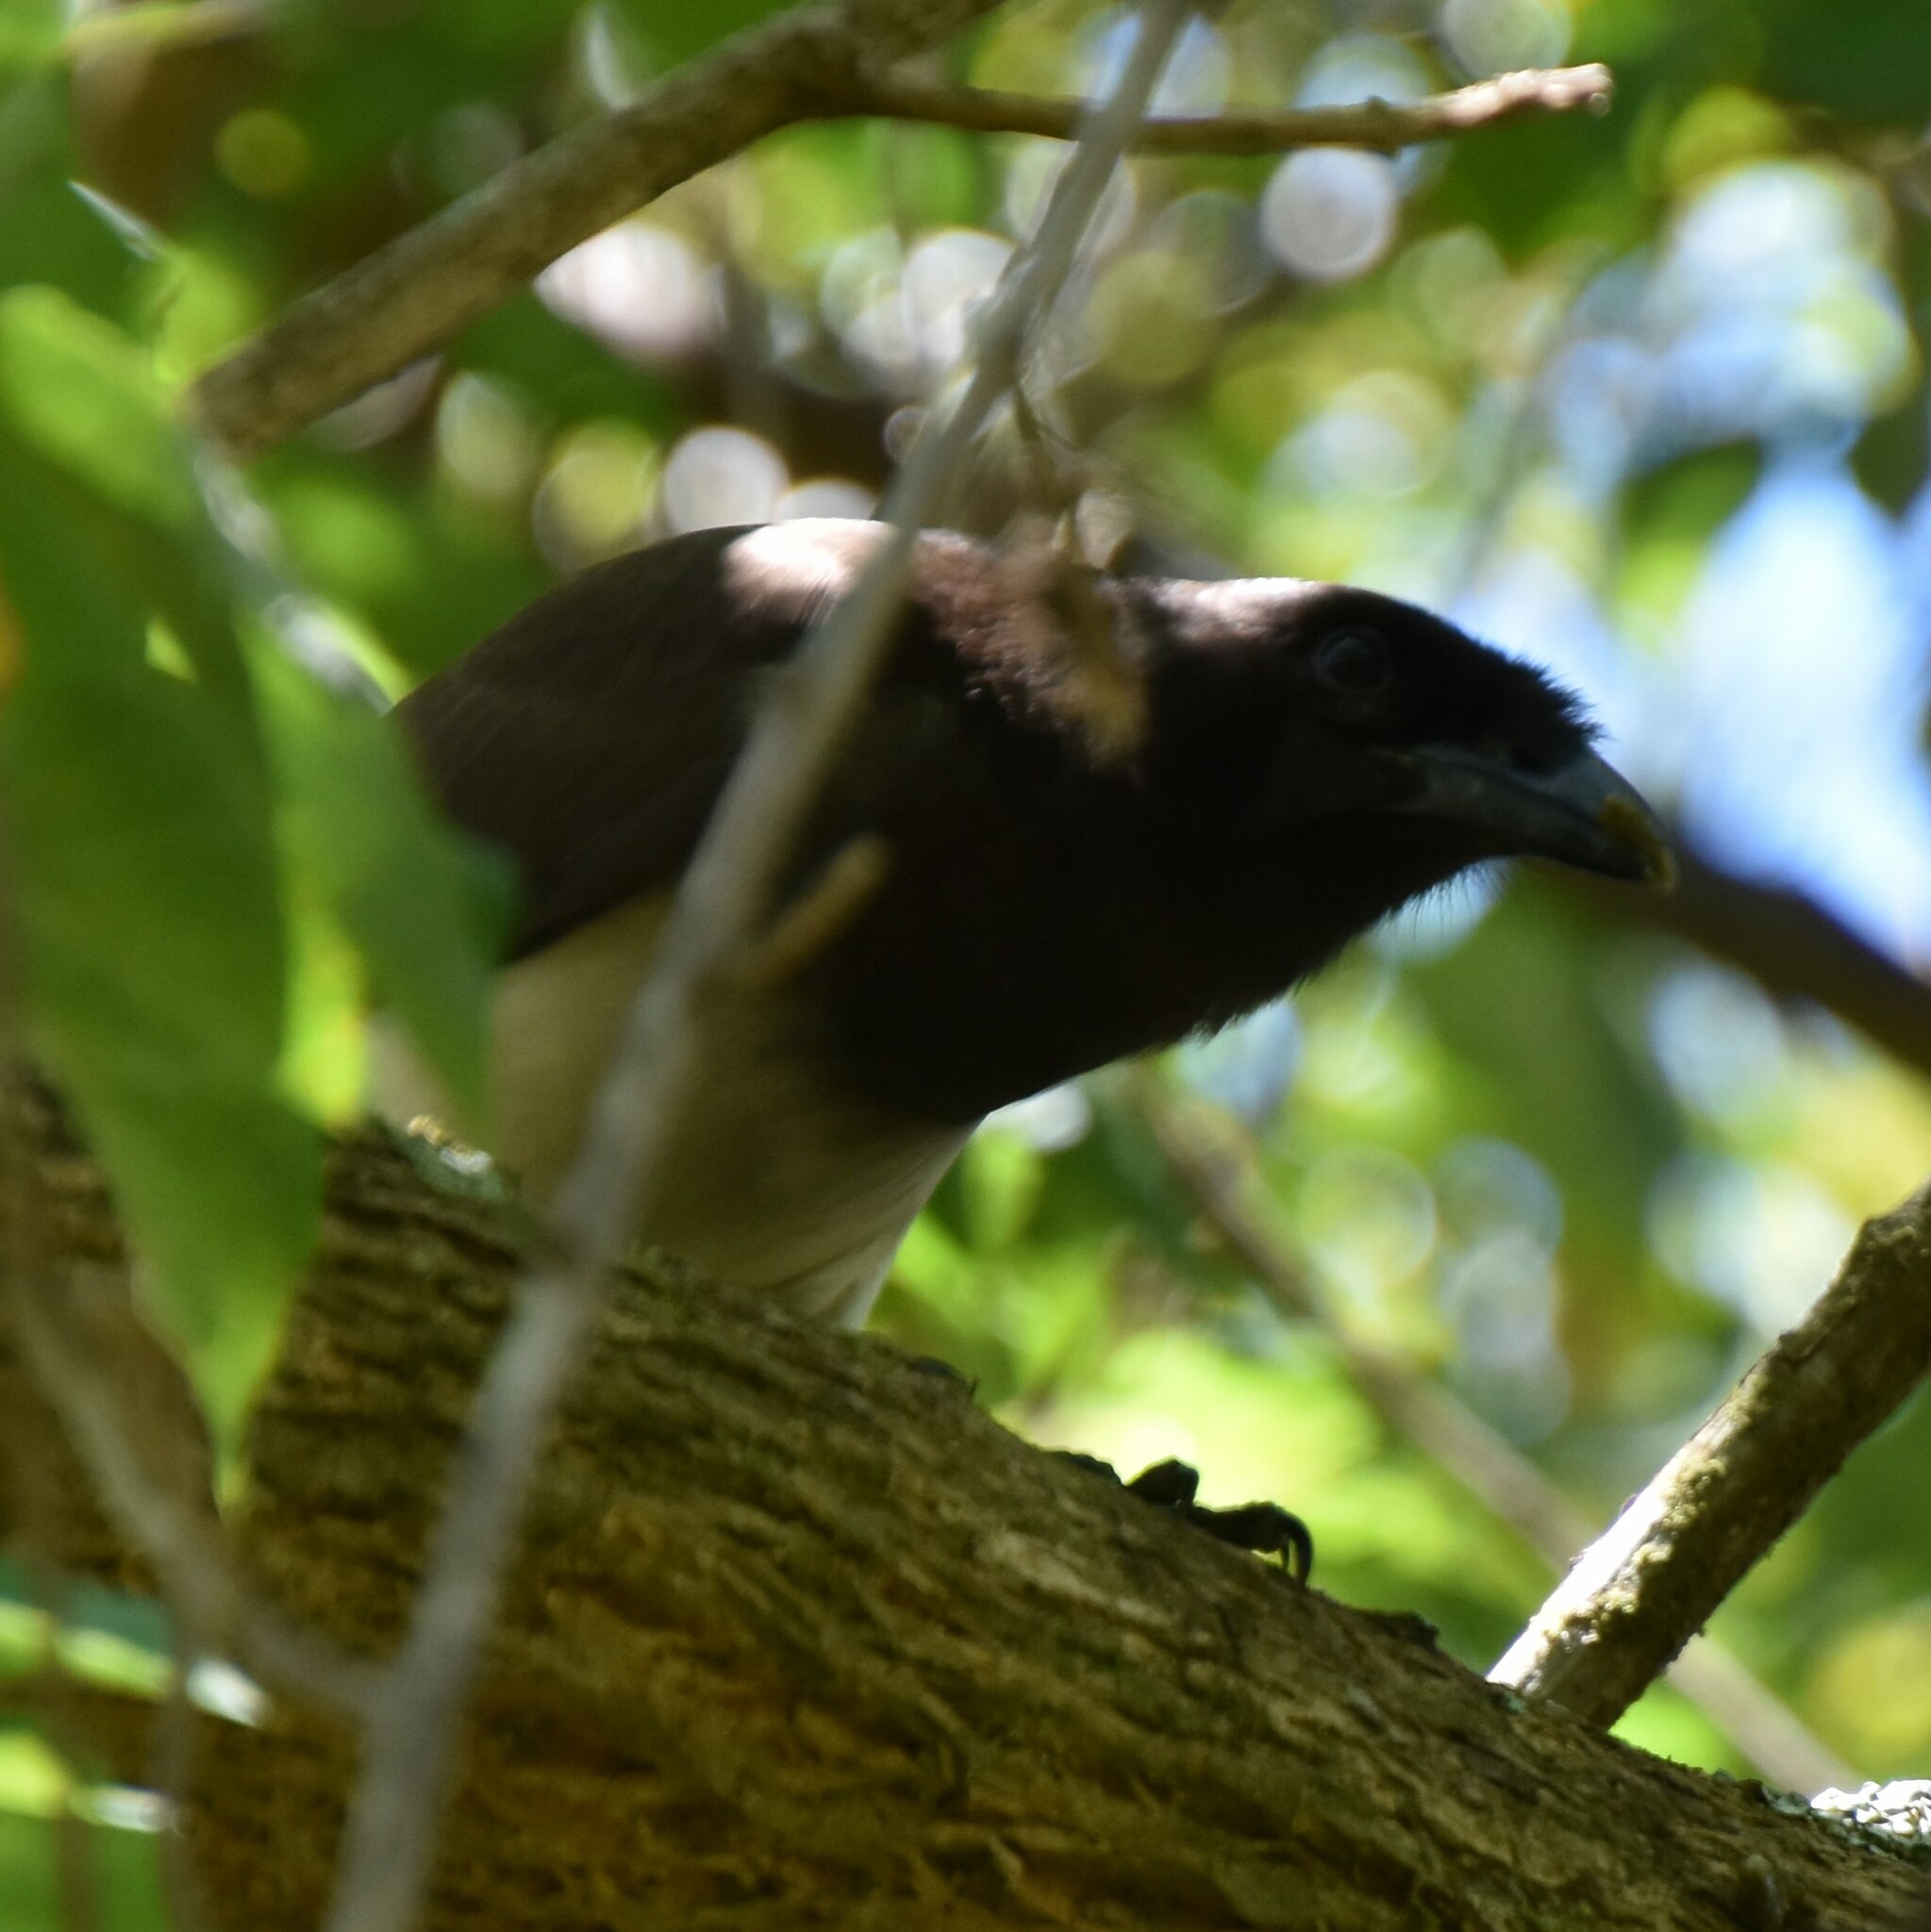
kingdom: Animalia
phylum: Chordata
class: Aves
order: Passeriformes
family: Corvidae
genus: Psilorhinus
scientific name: Psilorhinus morio
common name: Brown jay
